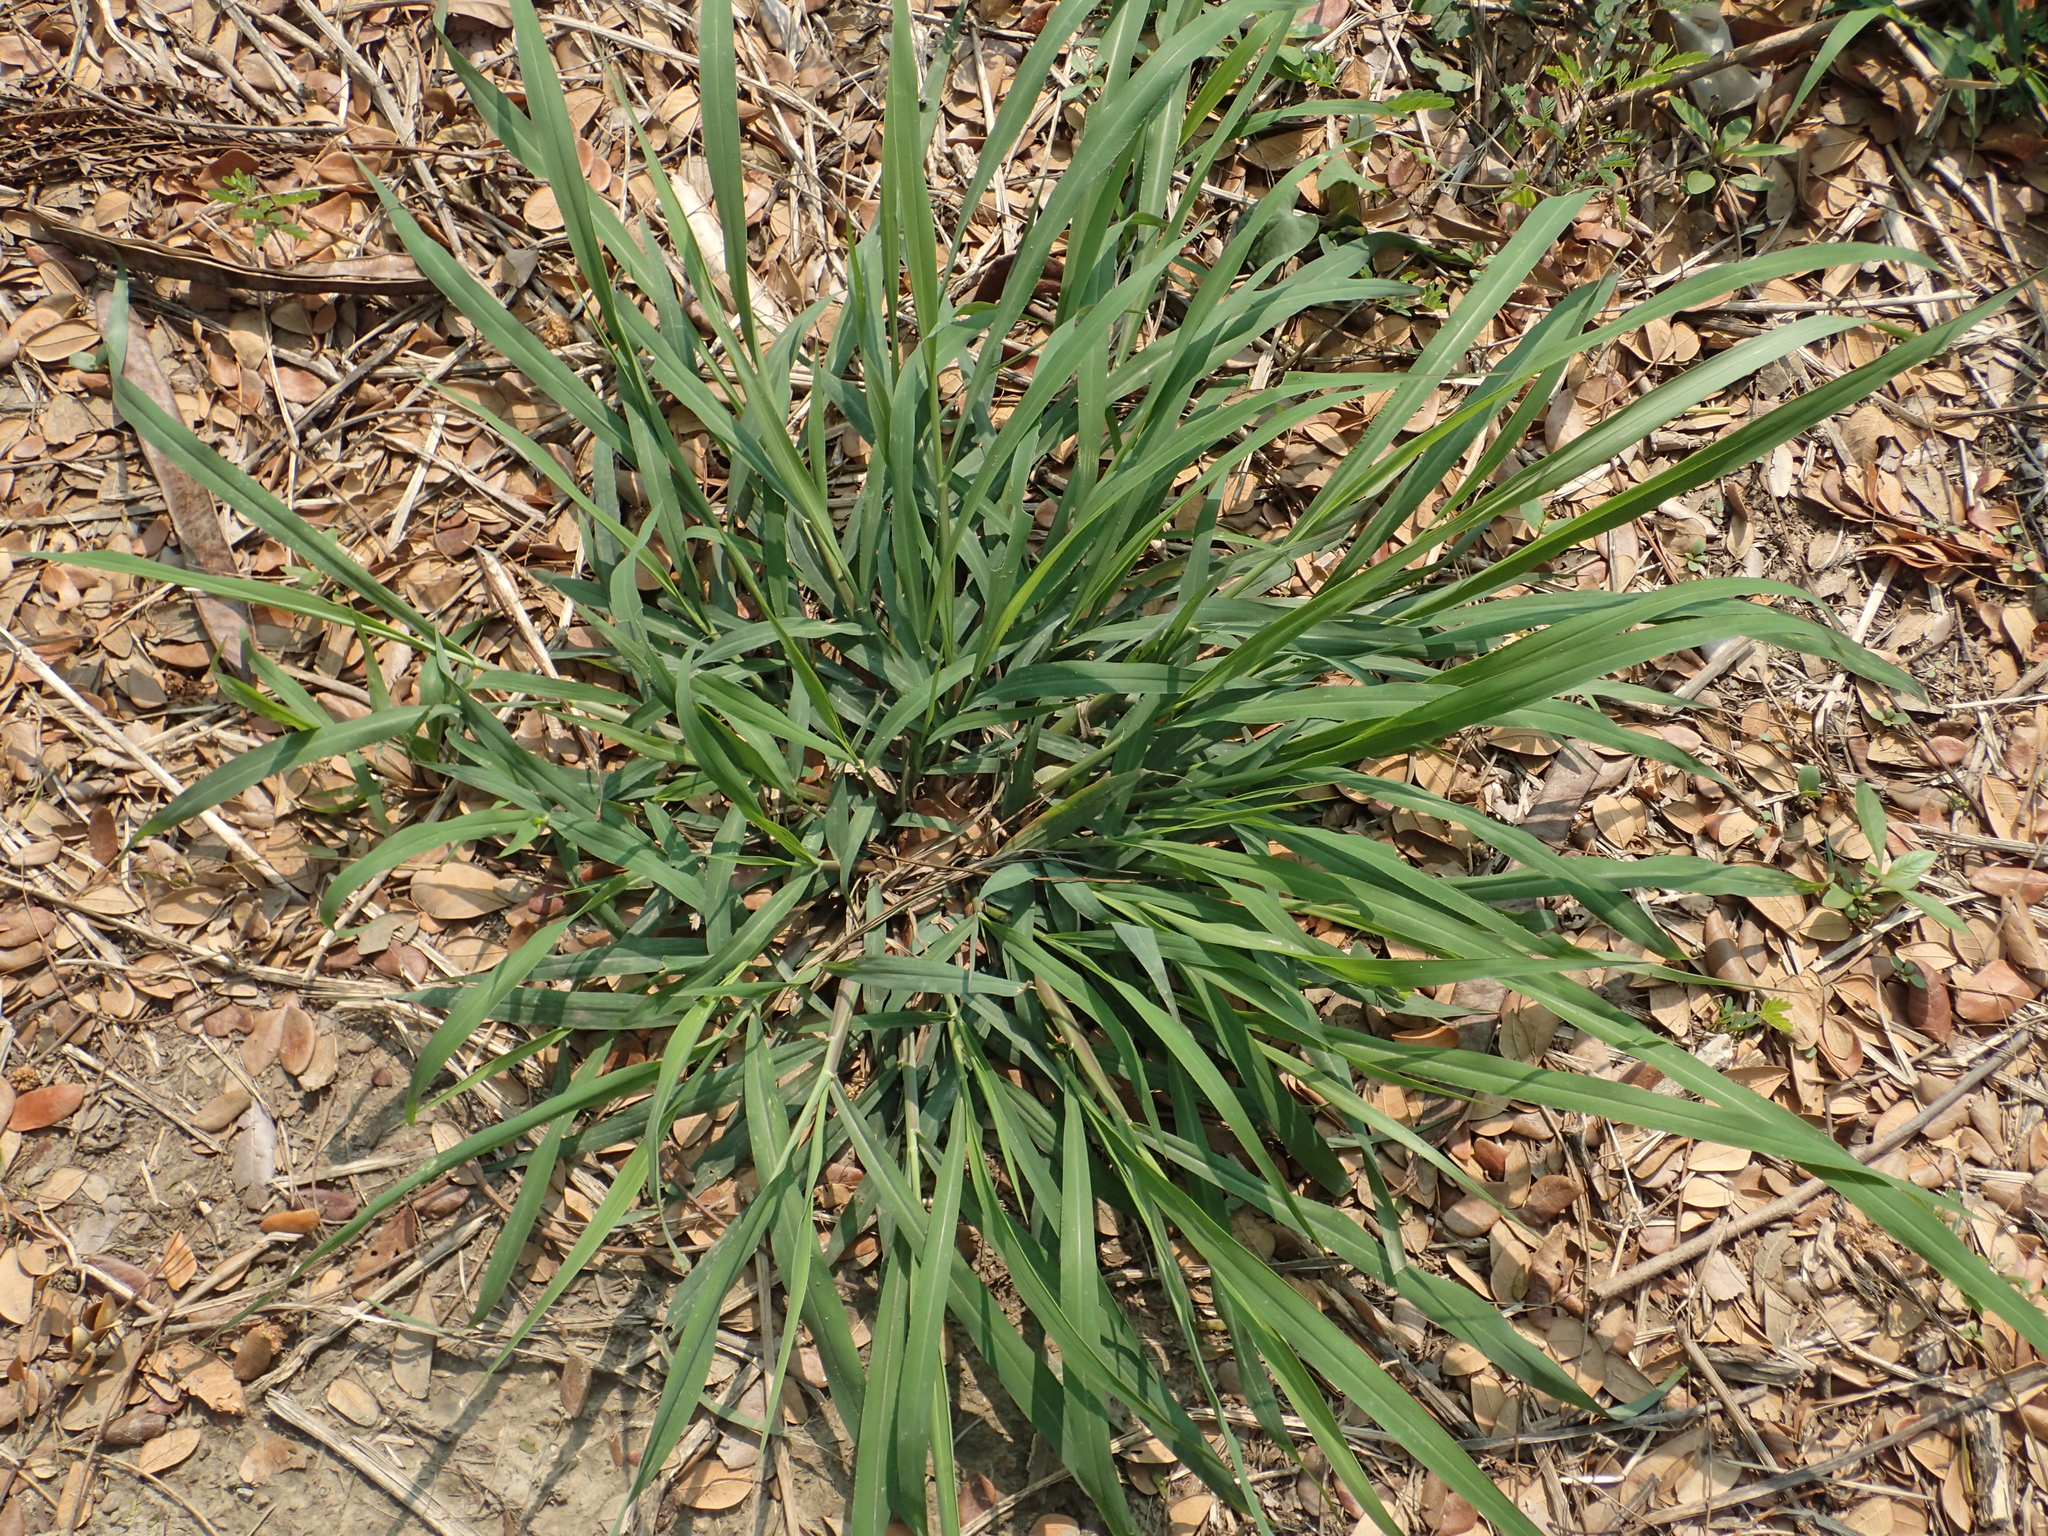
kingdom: Plantae
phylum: Tracheophyta
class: Liliopsida
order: Poales
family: Poaceae
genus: Megathyrsus
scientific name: Megathyrsus maximus
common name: Guineagrass
